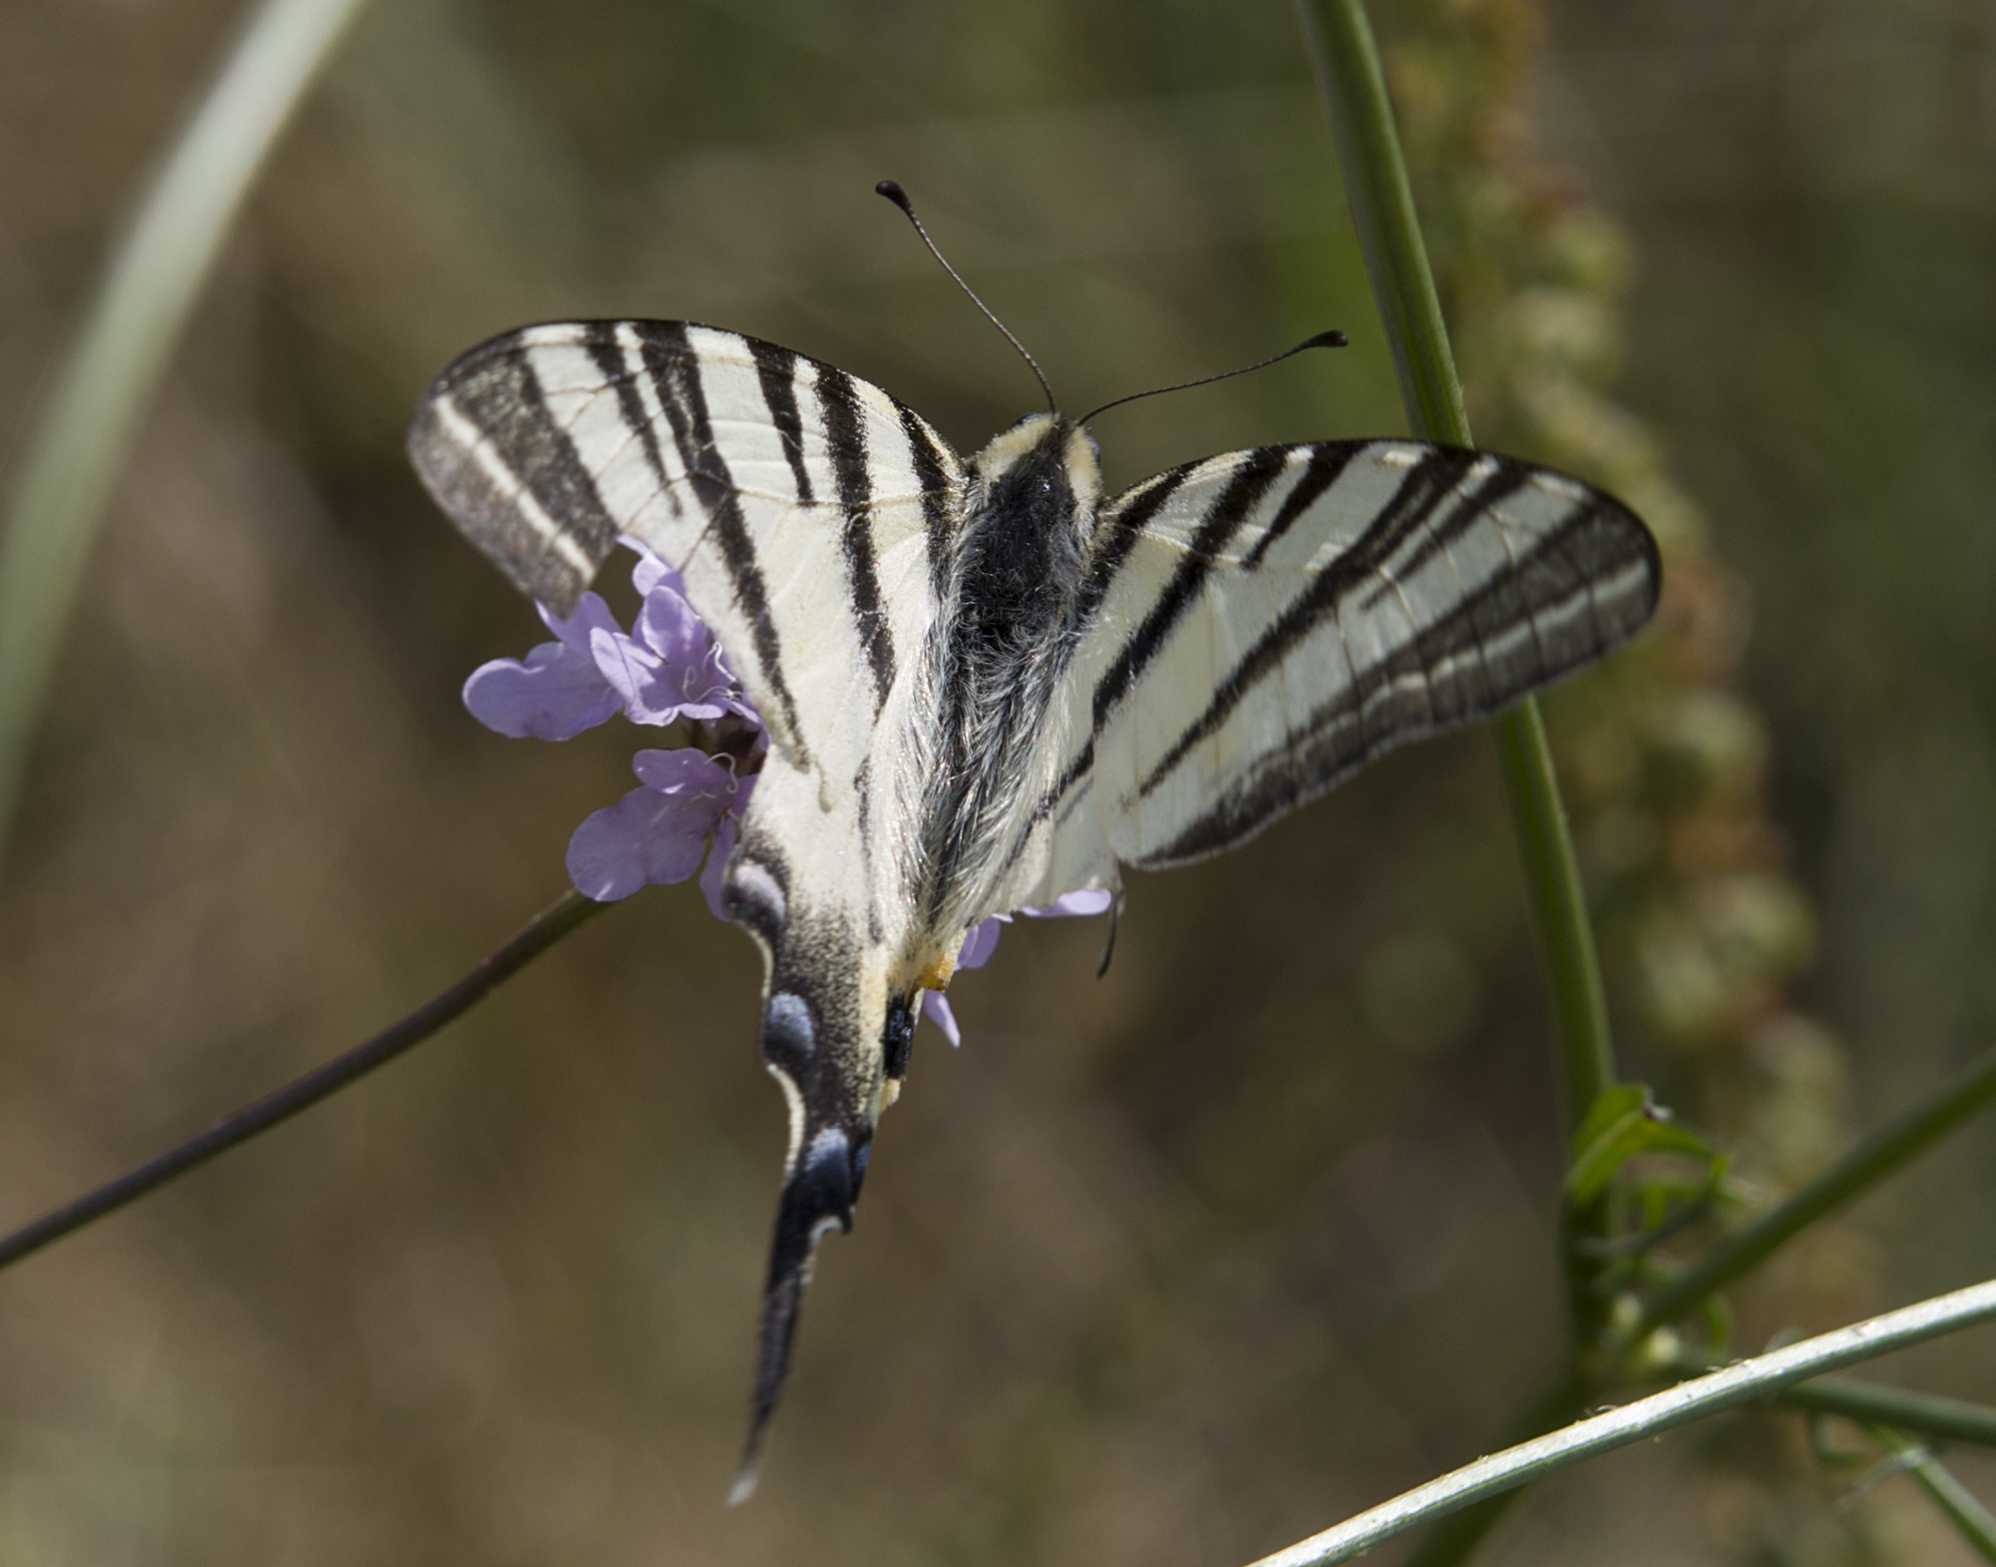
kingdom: Animalia
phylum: Arthropoda
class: Insecta
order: Lepidoptera
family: Papilionidae
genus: Iphiclides
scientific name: Iphiclides podalirius
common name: Scarce swallowtail
